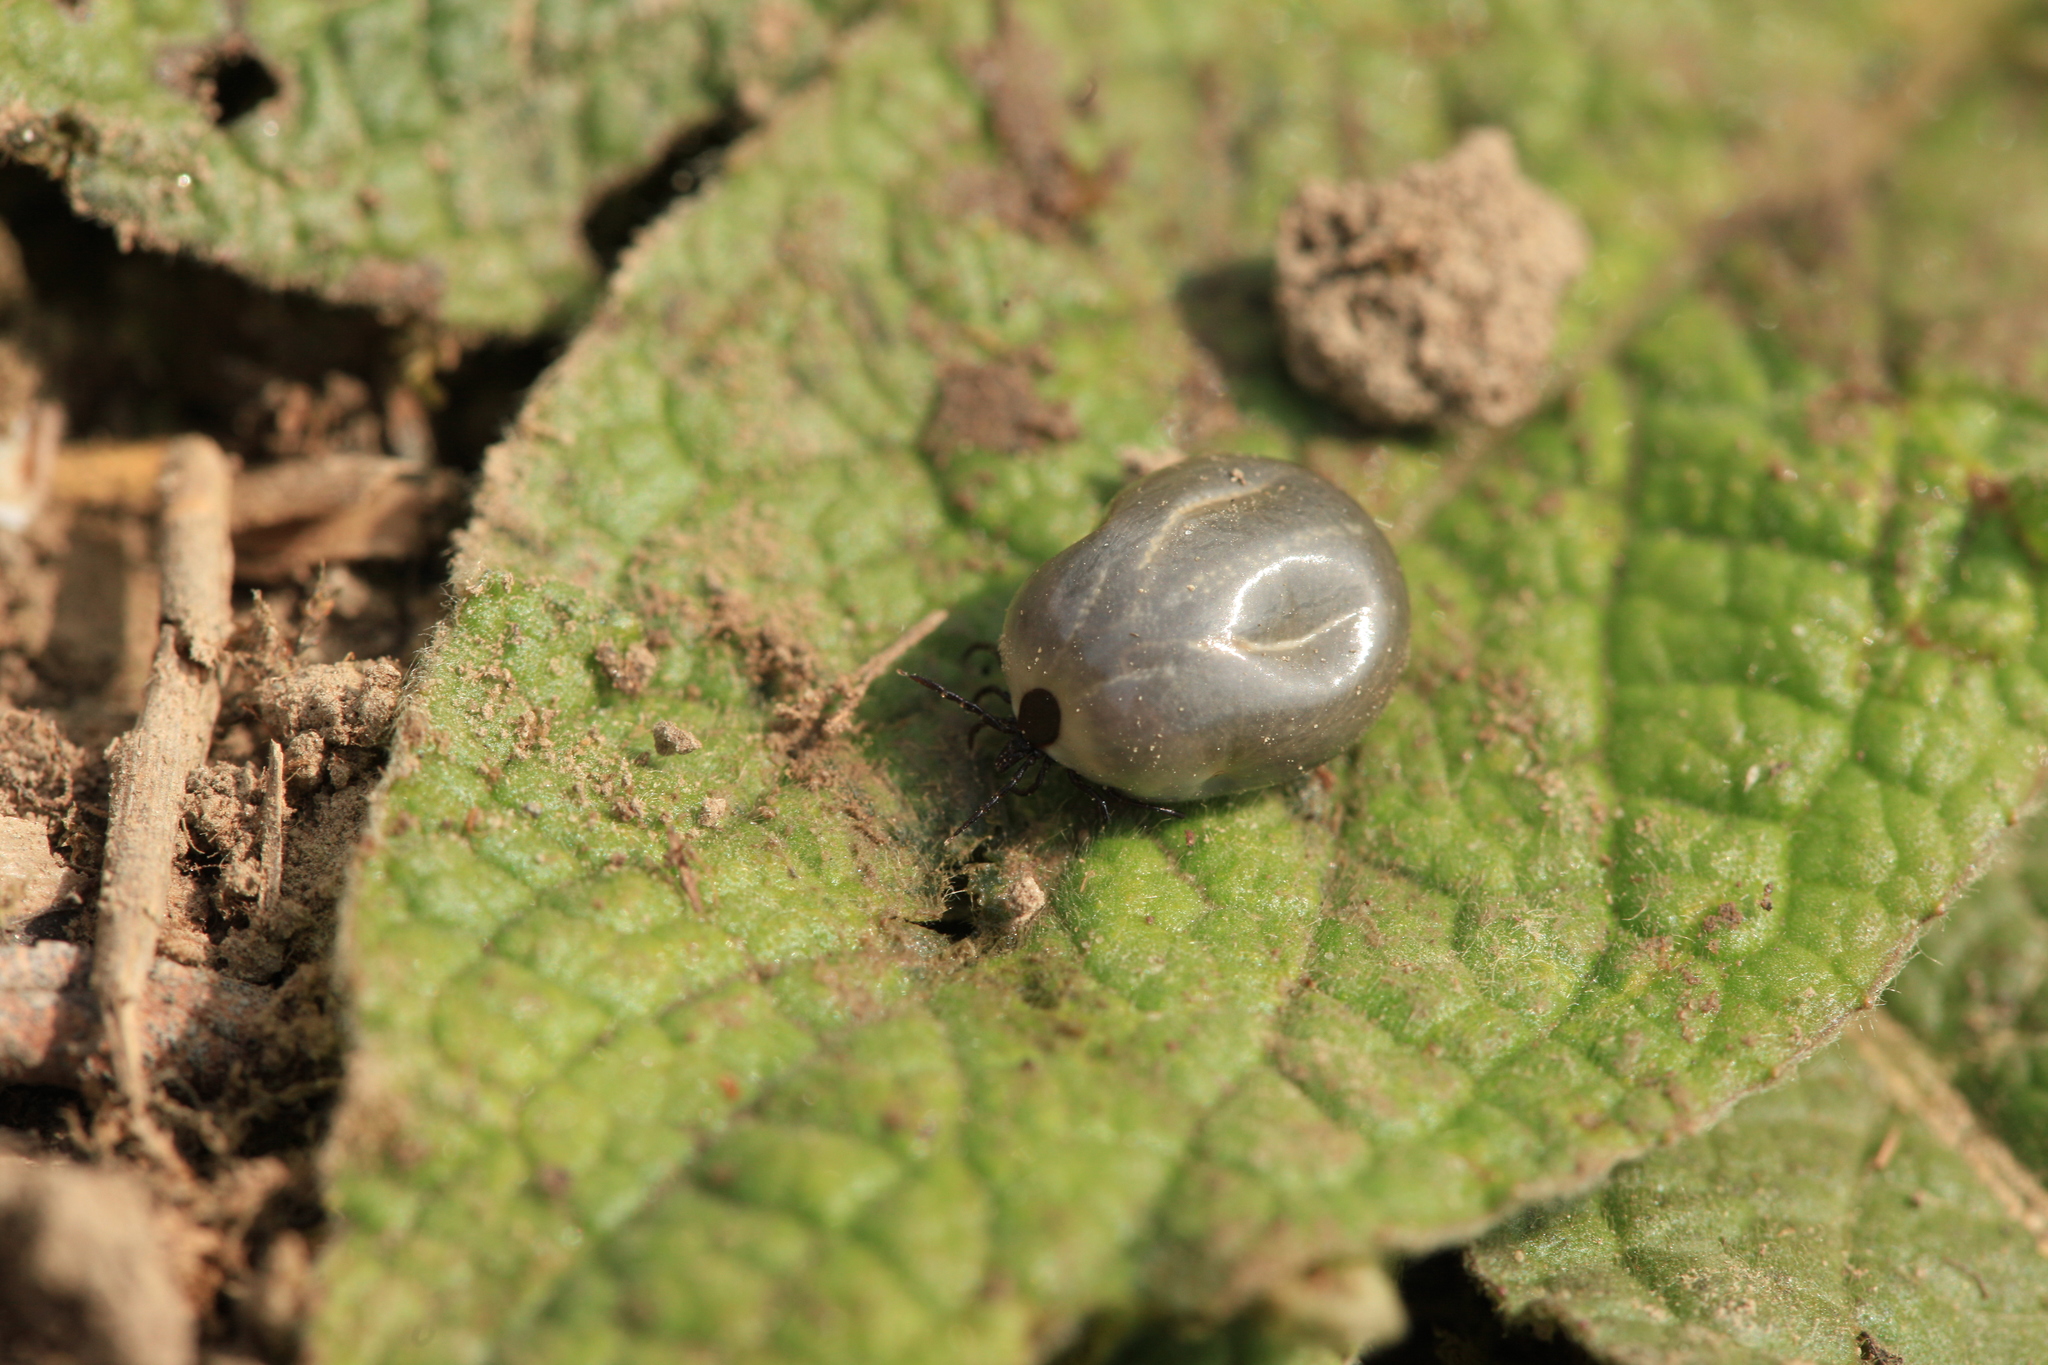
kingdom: Animalia
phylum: Arthropoda
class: Arachnida
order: Ixodida
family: Ixodidae
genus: Ixodes
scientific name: Ixodes ricinus
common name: Castor bean tick
